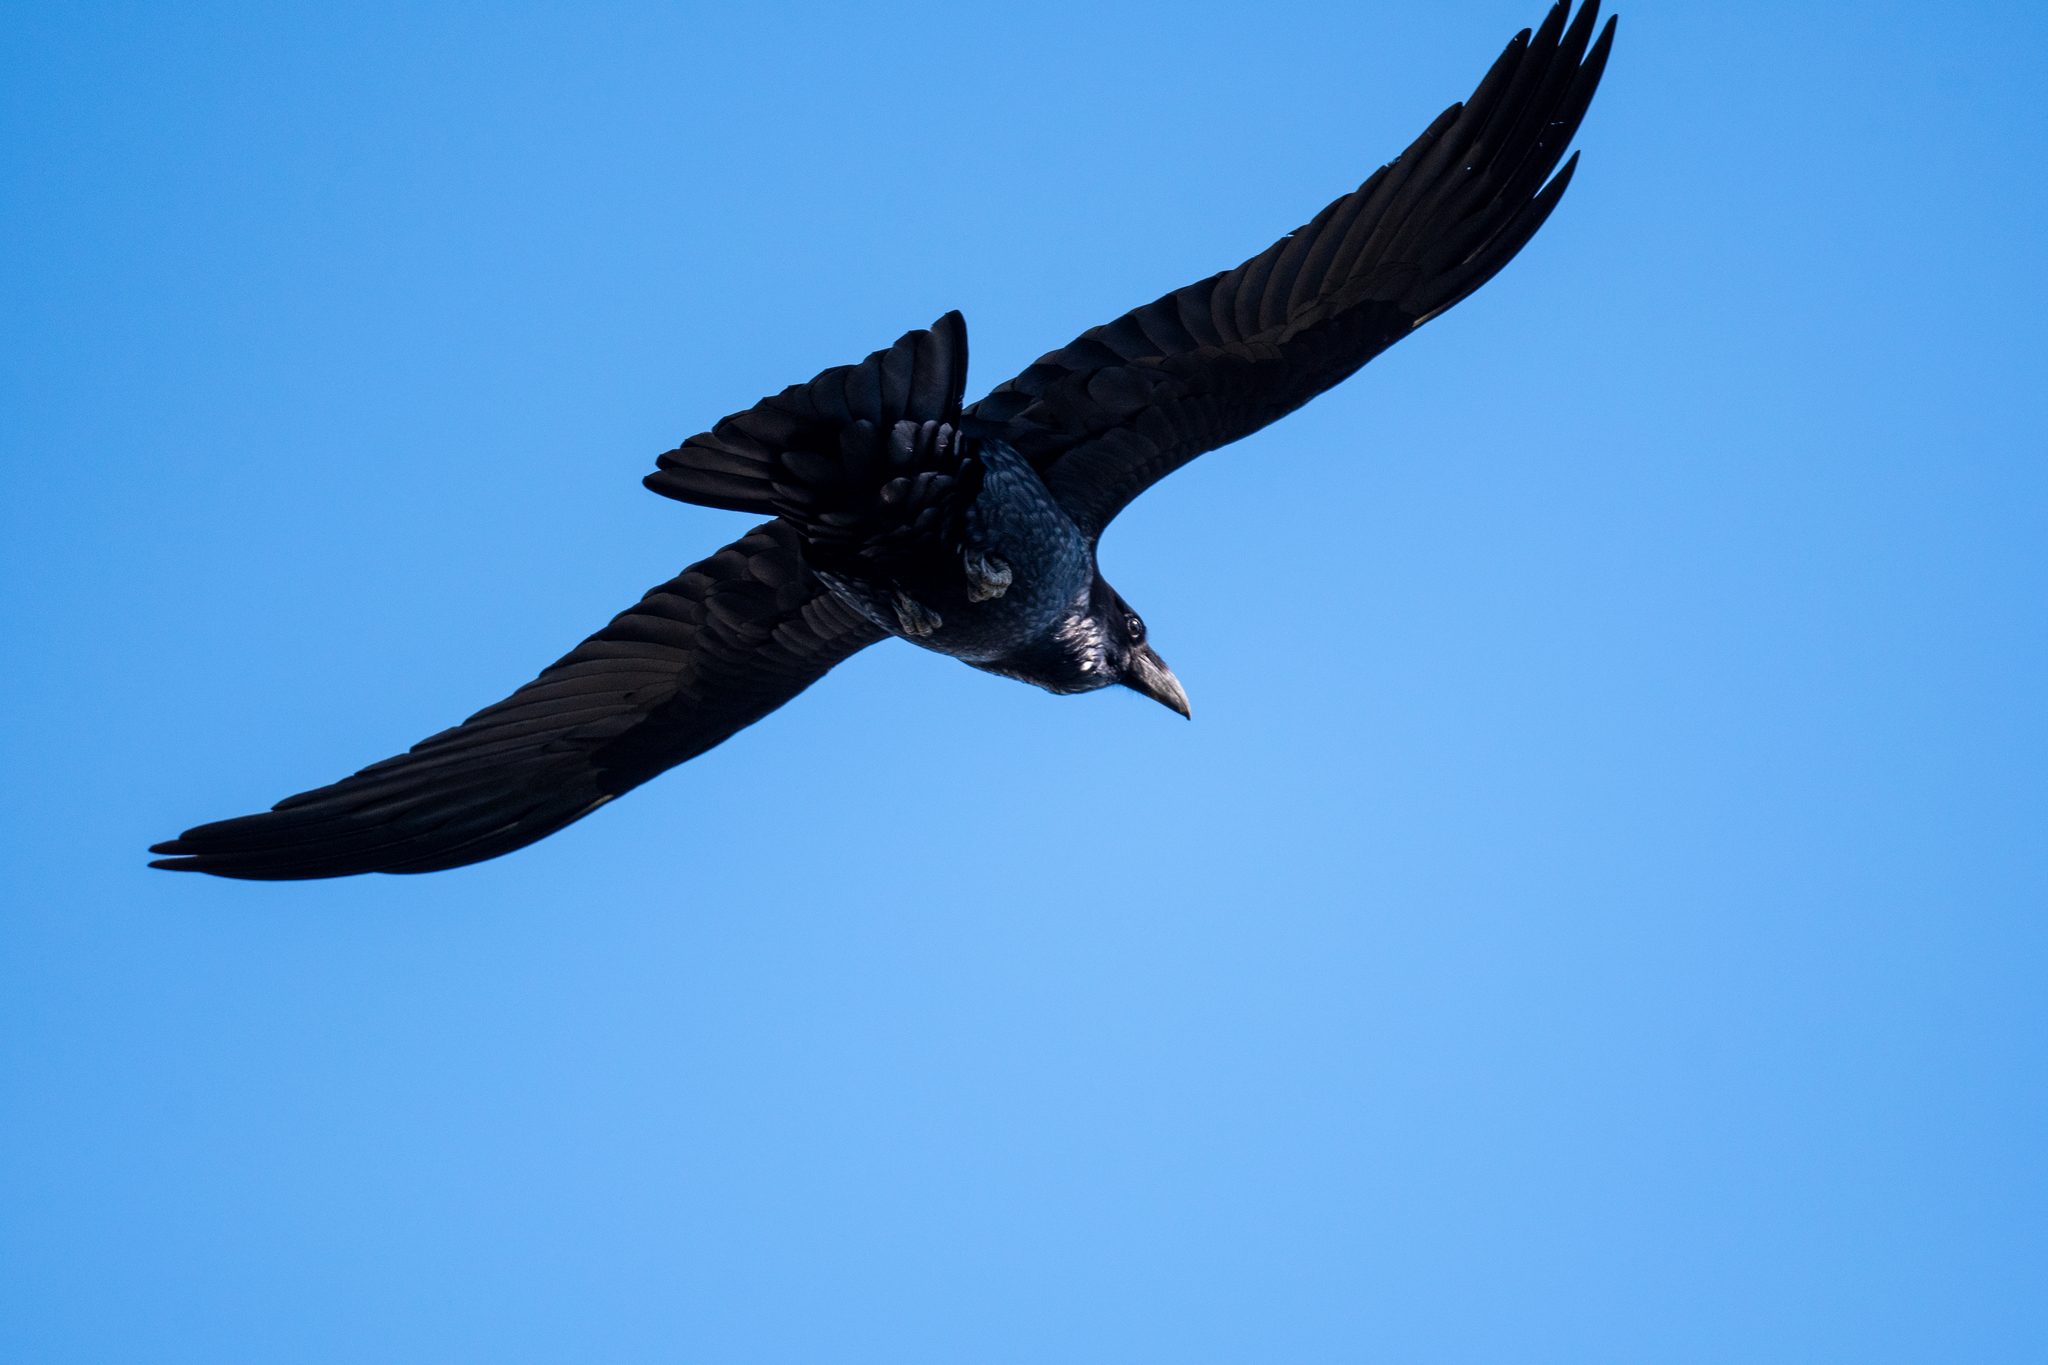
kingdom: Animalia
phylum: Chordata
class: Aves
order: Passeriformes
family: Corvidae
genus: Corvus
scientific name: Corvus corax
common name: Common raven
